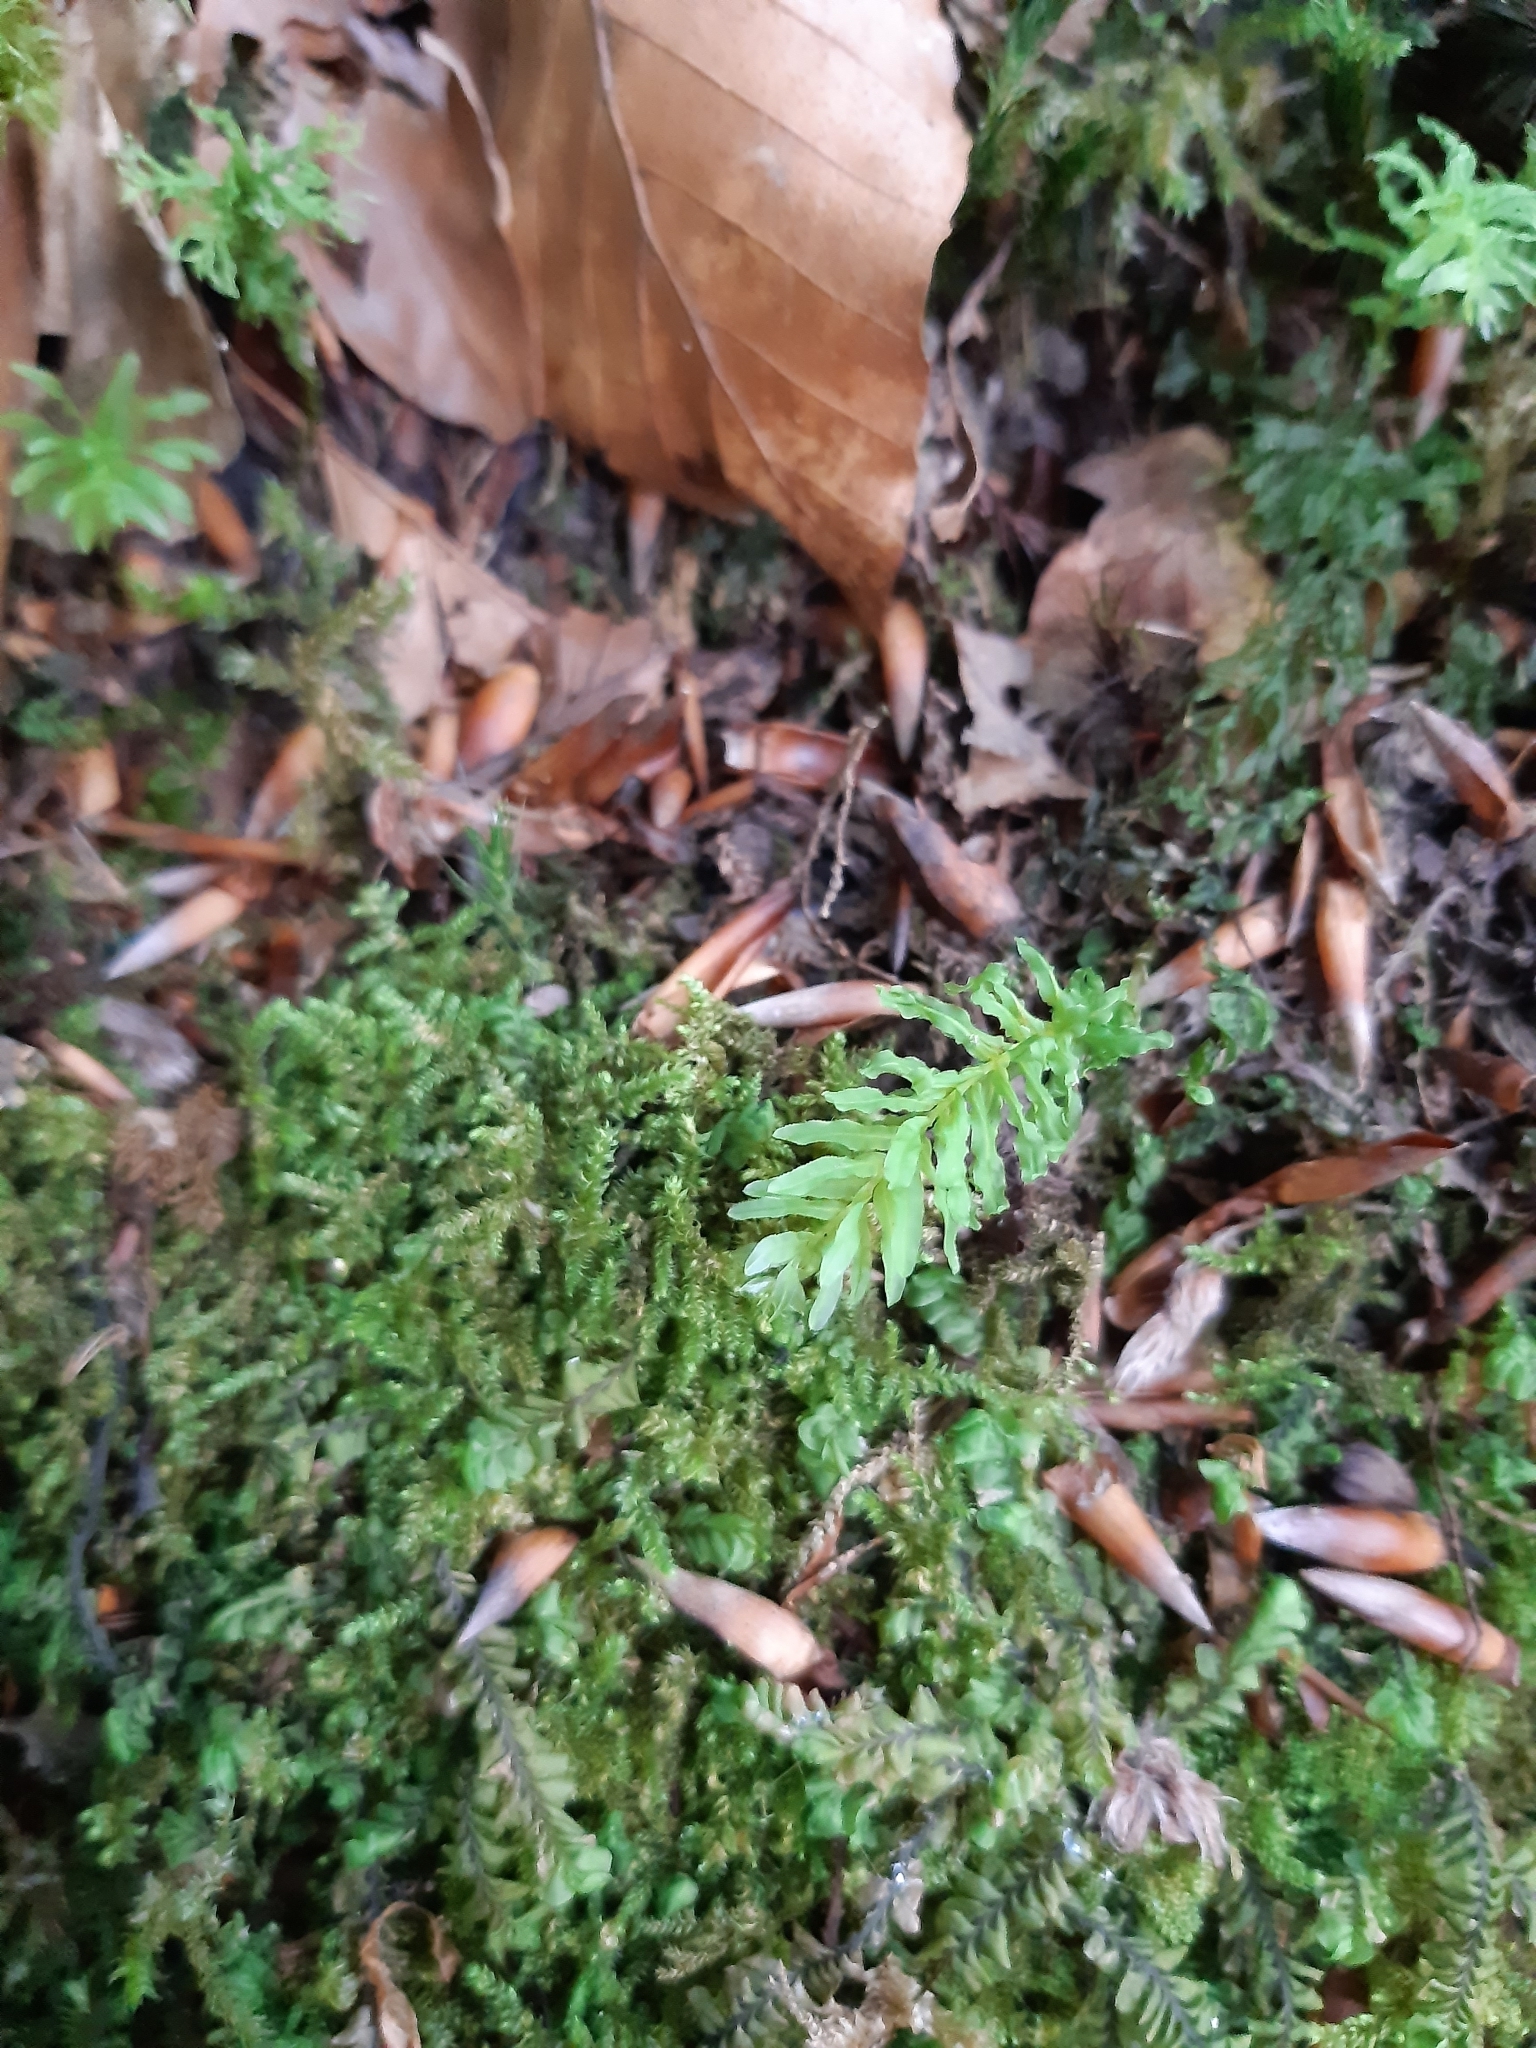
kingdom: Plantae
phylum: Bryophyta
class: Bryopsida
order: Bryales
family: Mniaceae
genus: Plagiomnium
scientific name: Plagiomnium undulatum
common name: Hart's-tongue thyme-moss
